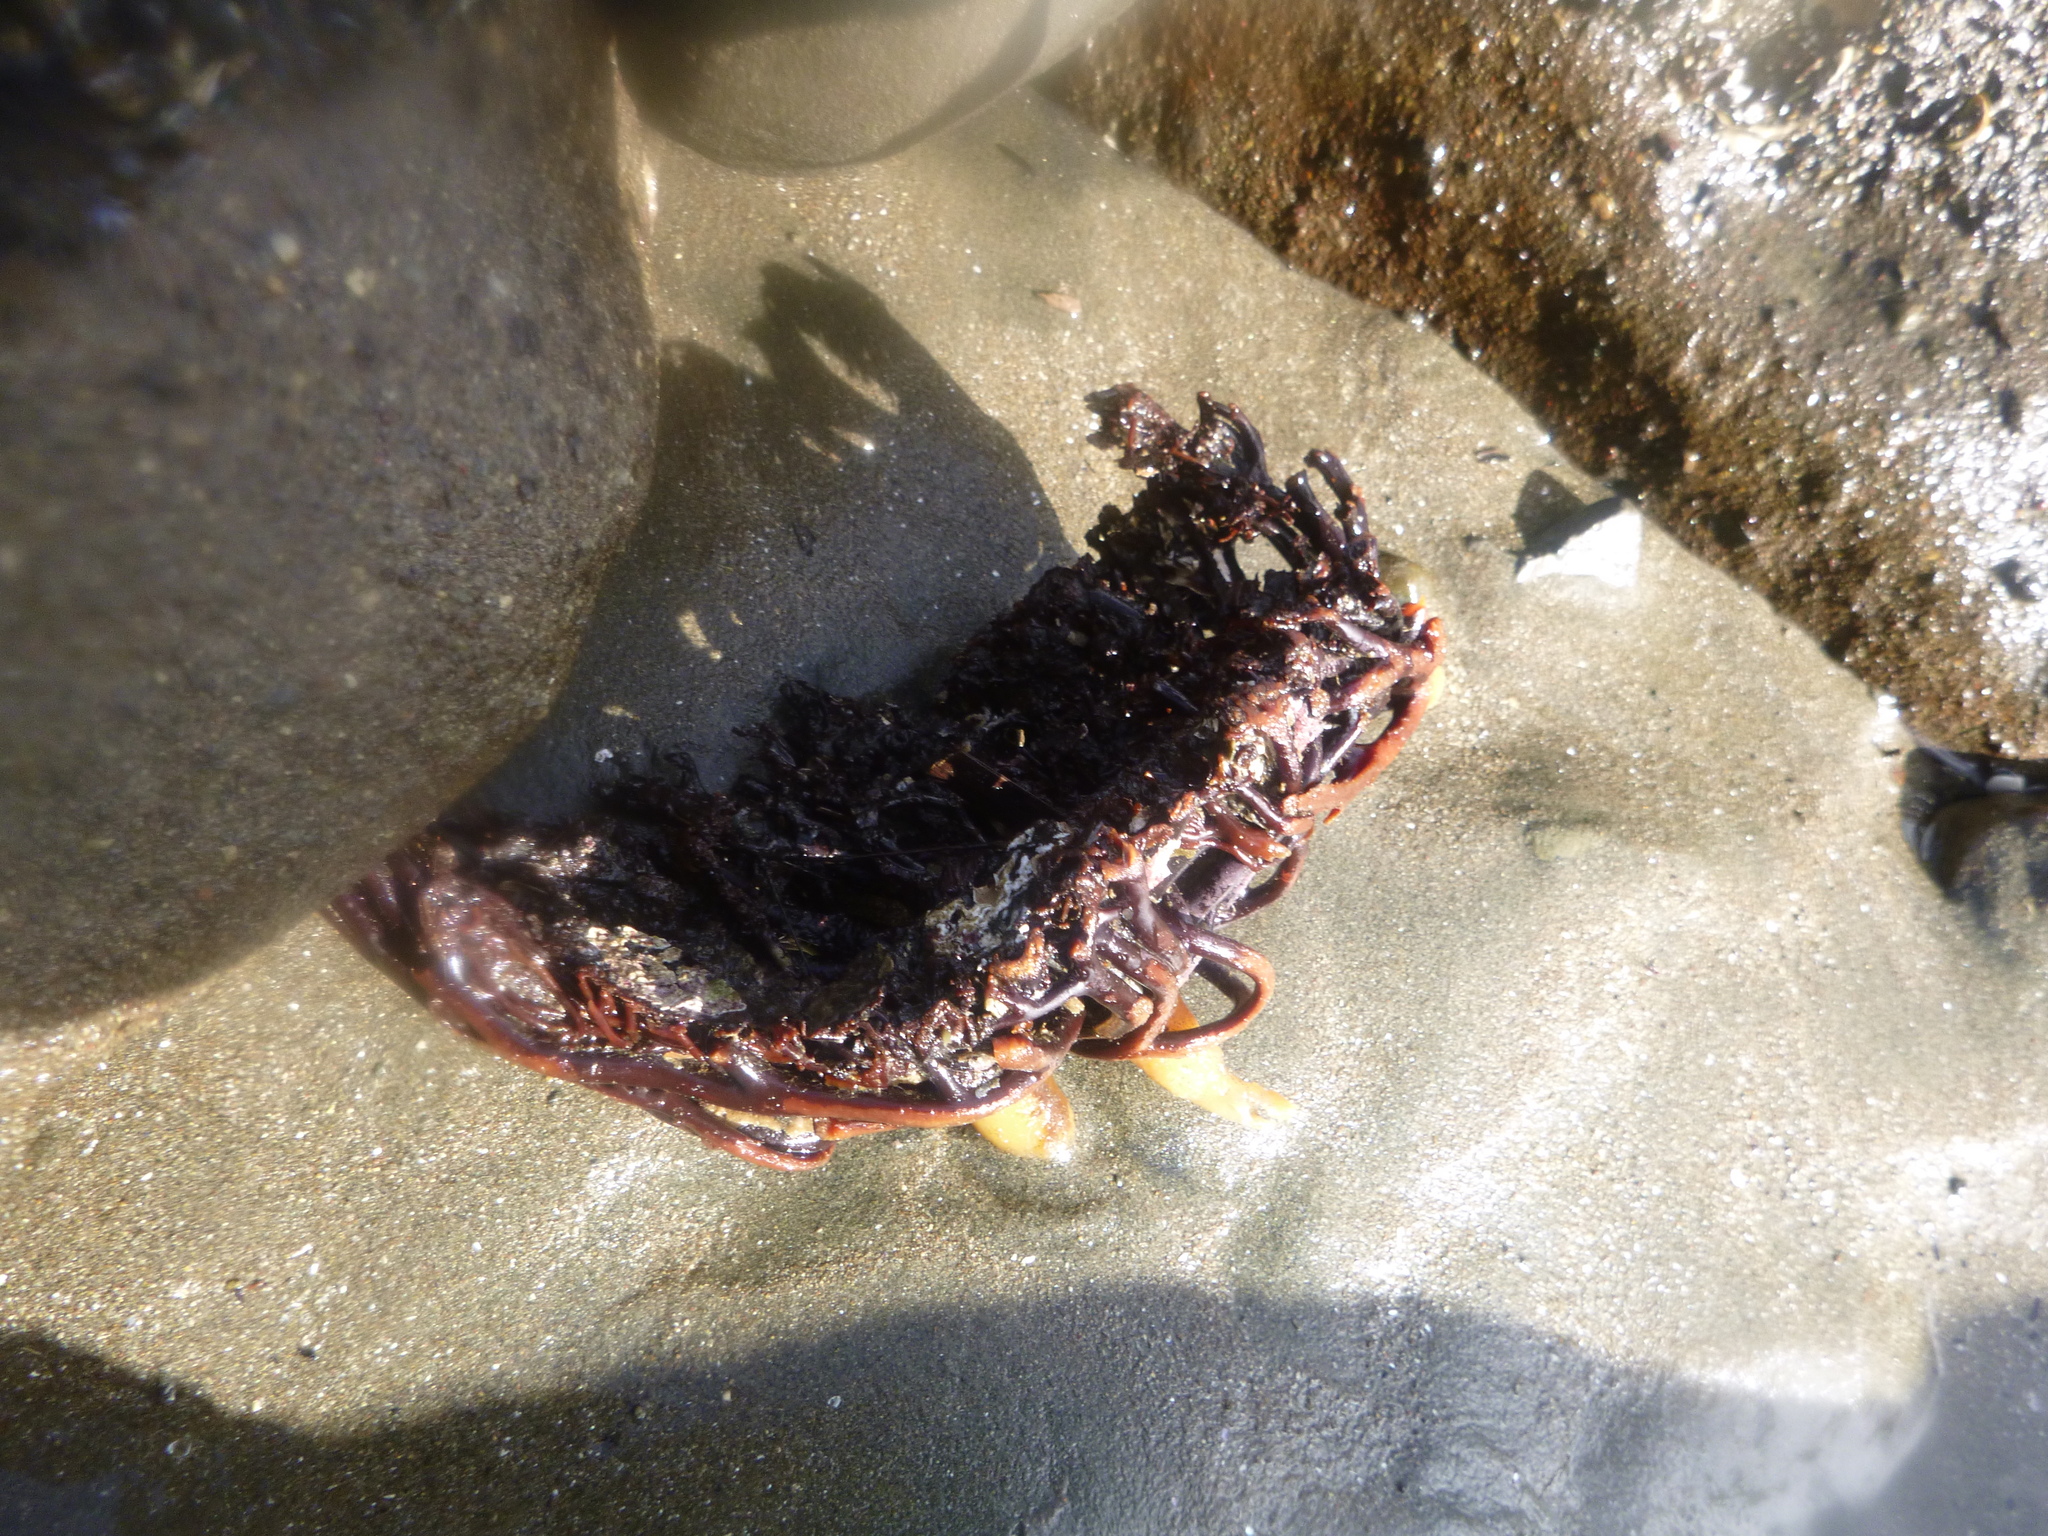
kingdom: Chromista
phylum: Ochrophyta
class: Phaeophyceae
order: Laminariales
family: Laminariaceae
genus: Macrocystis
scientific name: Macrocystis pyrifera
